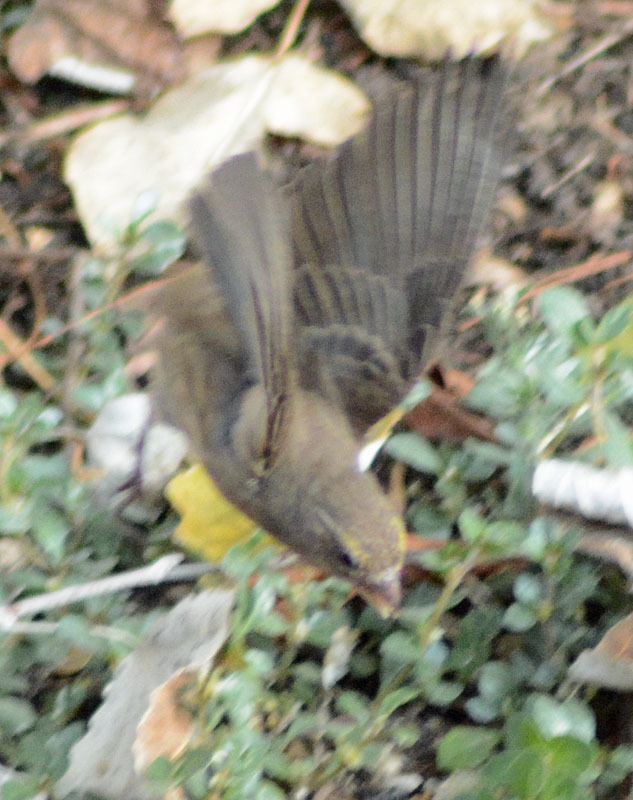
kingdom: Animalia
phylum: Chordata
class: Aves
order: Passeriformes
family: Passeridae
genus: Passer
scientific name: Passer domesticus
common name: House sparrow
